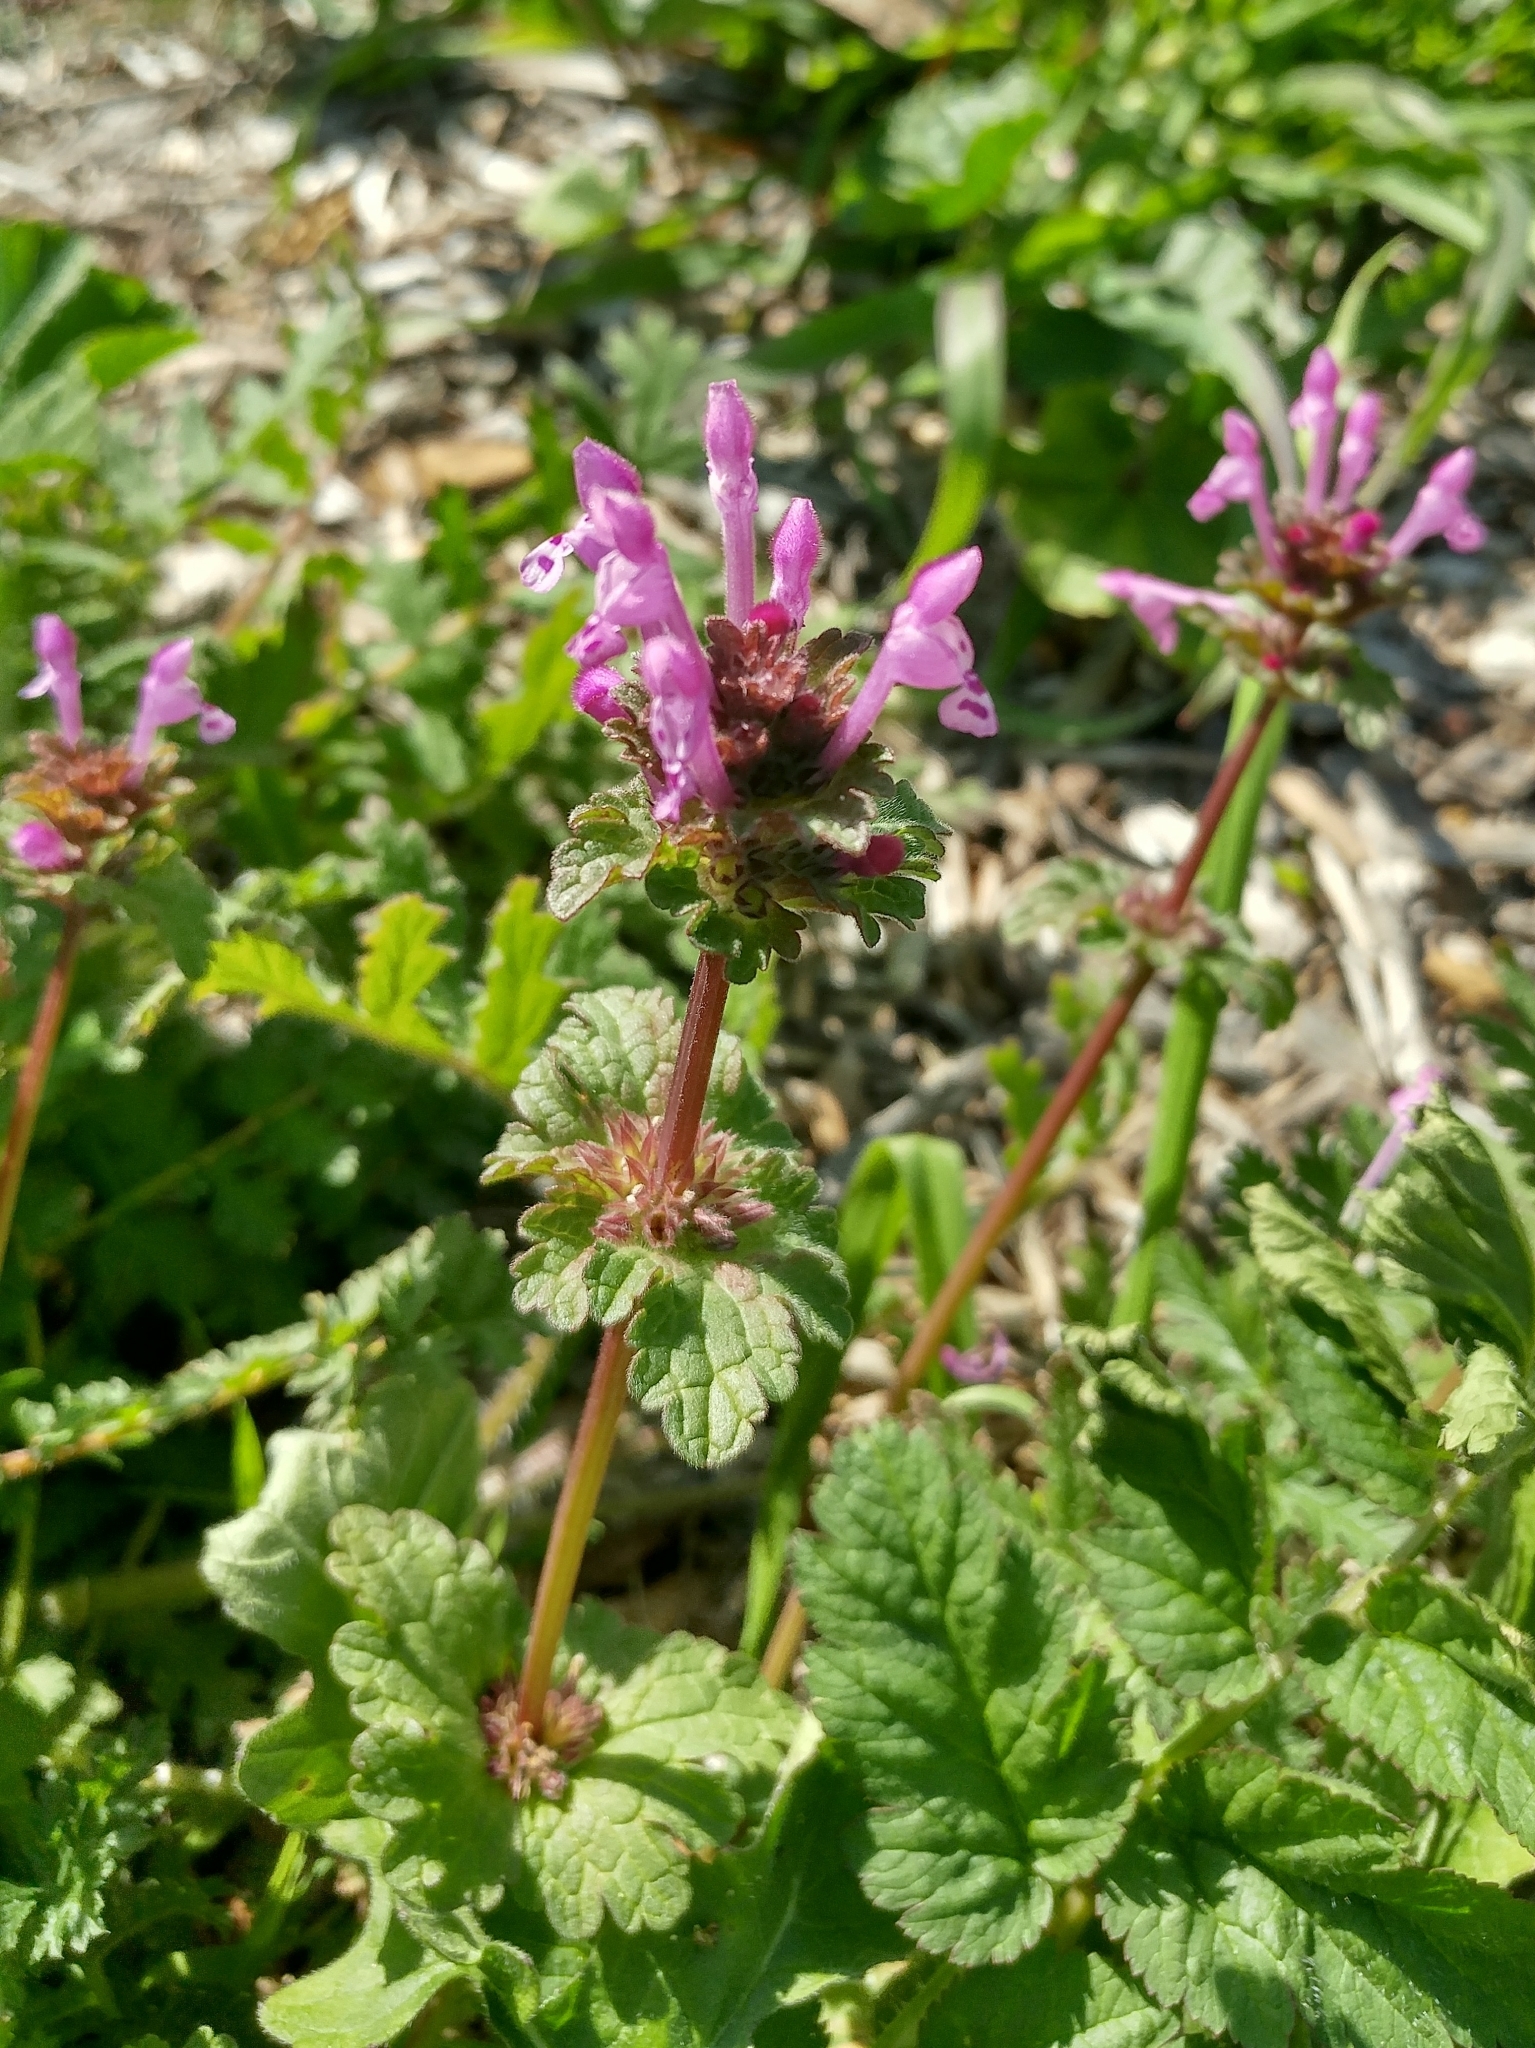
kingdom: Plantae
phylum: Tracheophyta
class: Magnoliopsida
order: Lamiales
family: Lamiaceae
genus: Lamium
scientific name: Lamium amplexicaule
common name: Henbit dead-nettle
